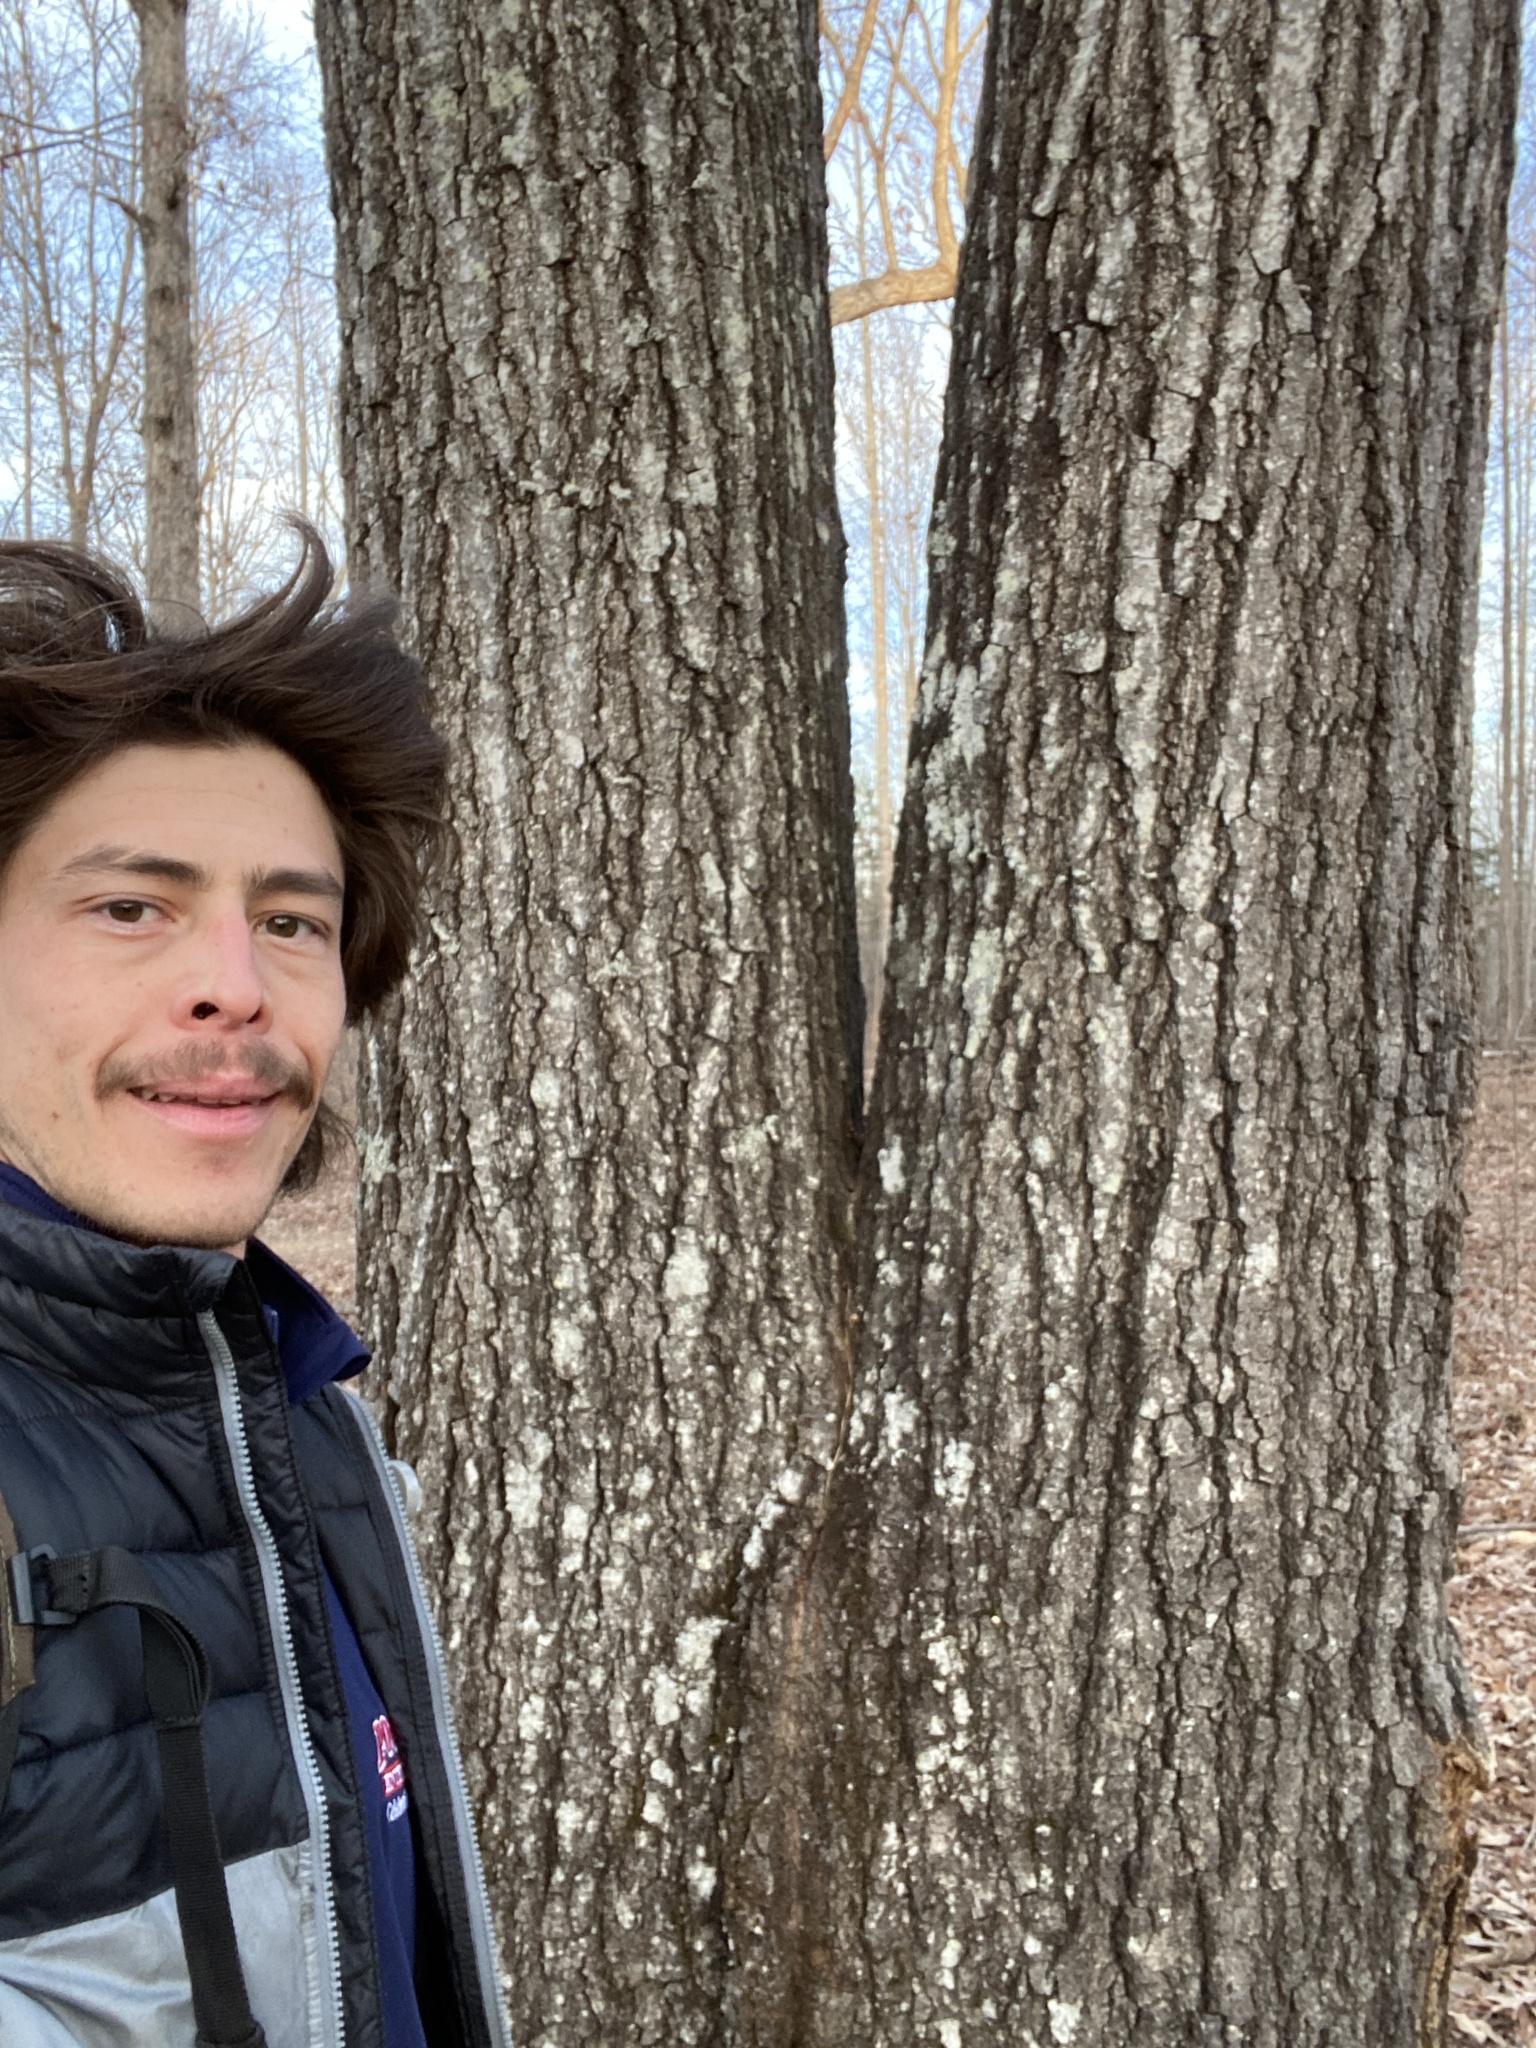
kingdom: Plantae
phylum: Tracheophyta
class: Magnoliopsida
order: Fagales
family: Fagaceae
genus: Quercus
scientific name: Quercus falcata
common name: Southern red oak
